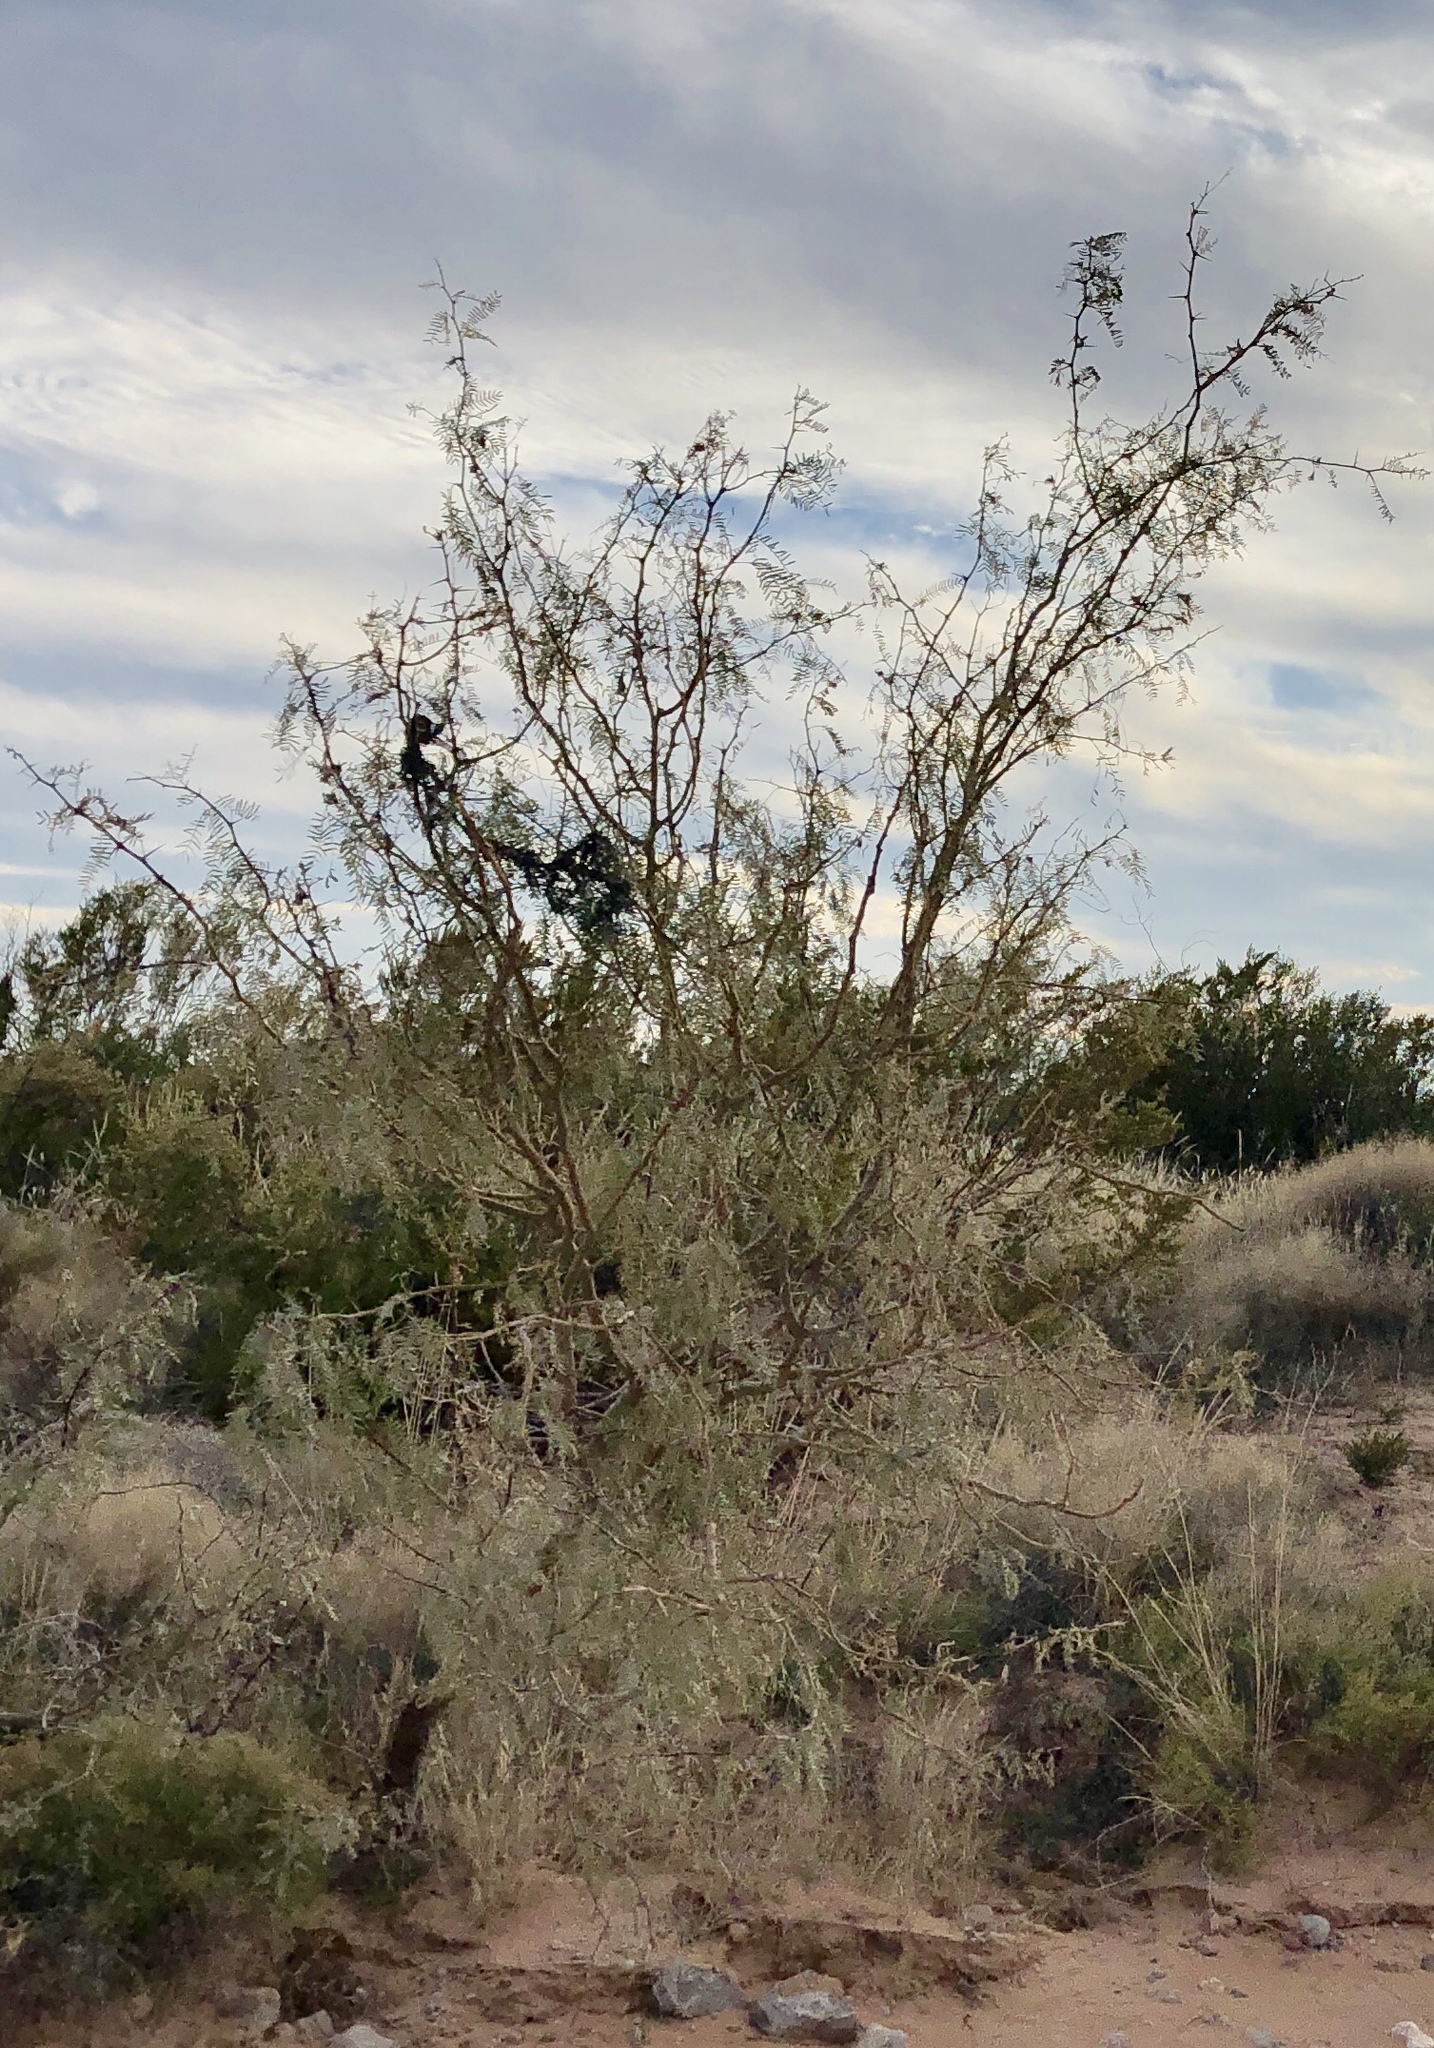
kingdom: Plantae
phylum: Tracheophyta
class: Magnoliopsida
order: Fabales
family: Fabaceae
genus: Prosopis
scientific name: Prosopis glandulosa
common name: Honey mesquite
